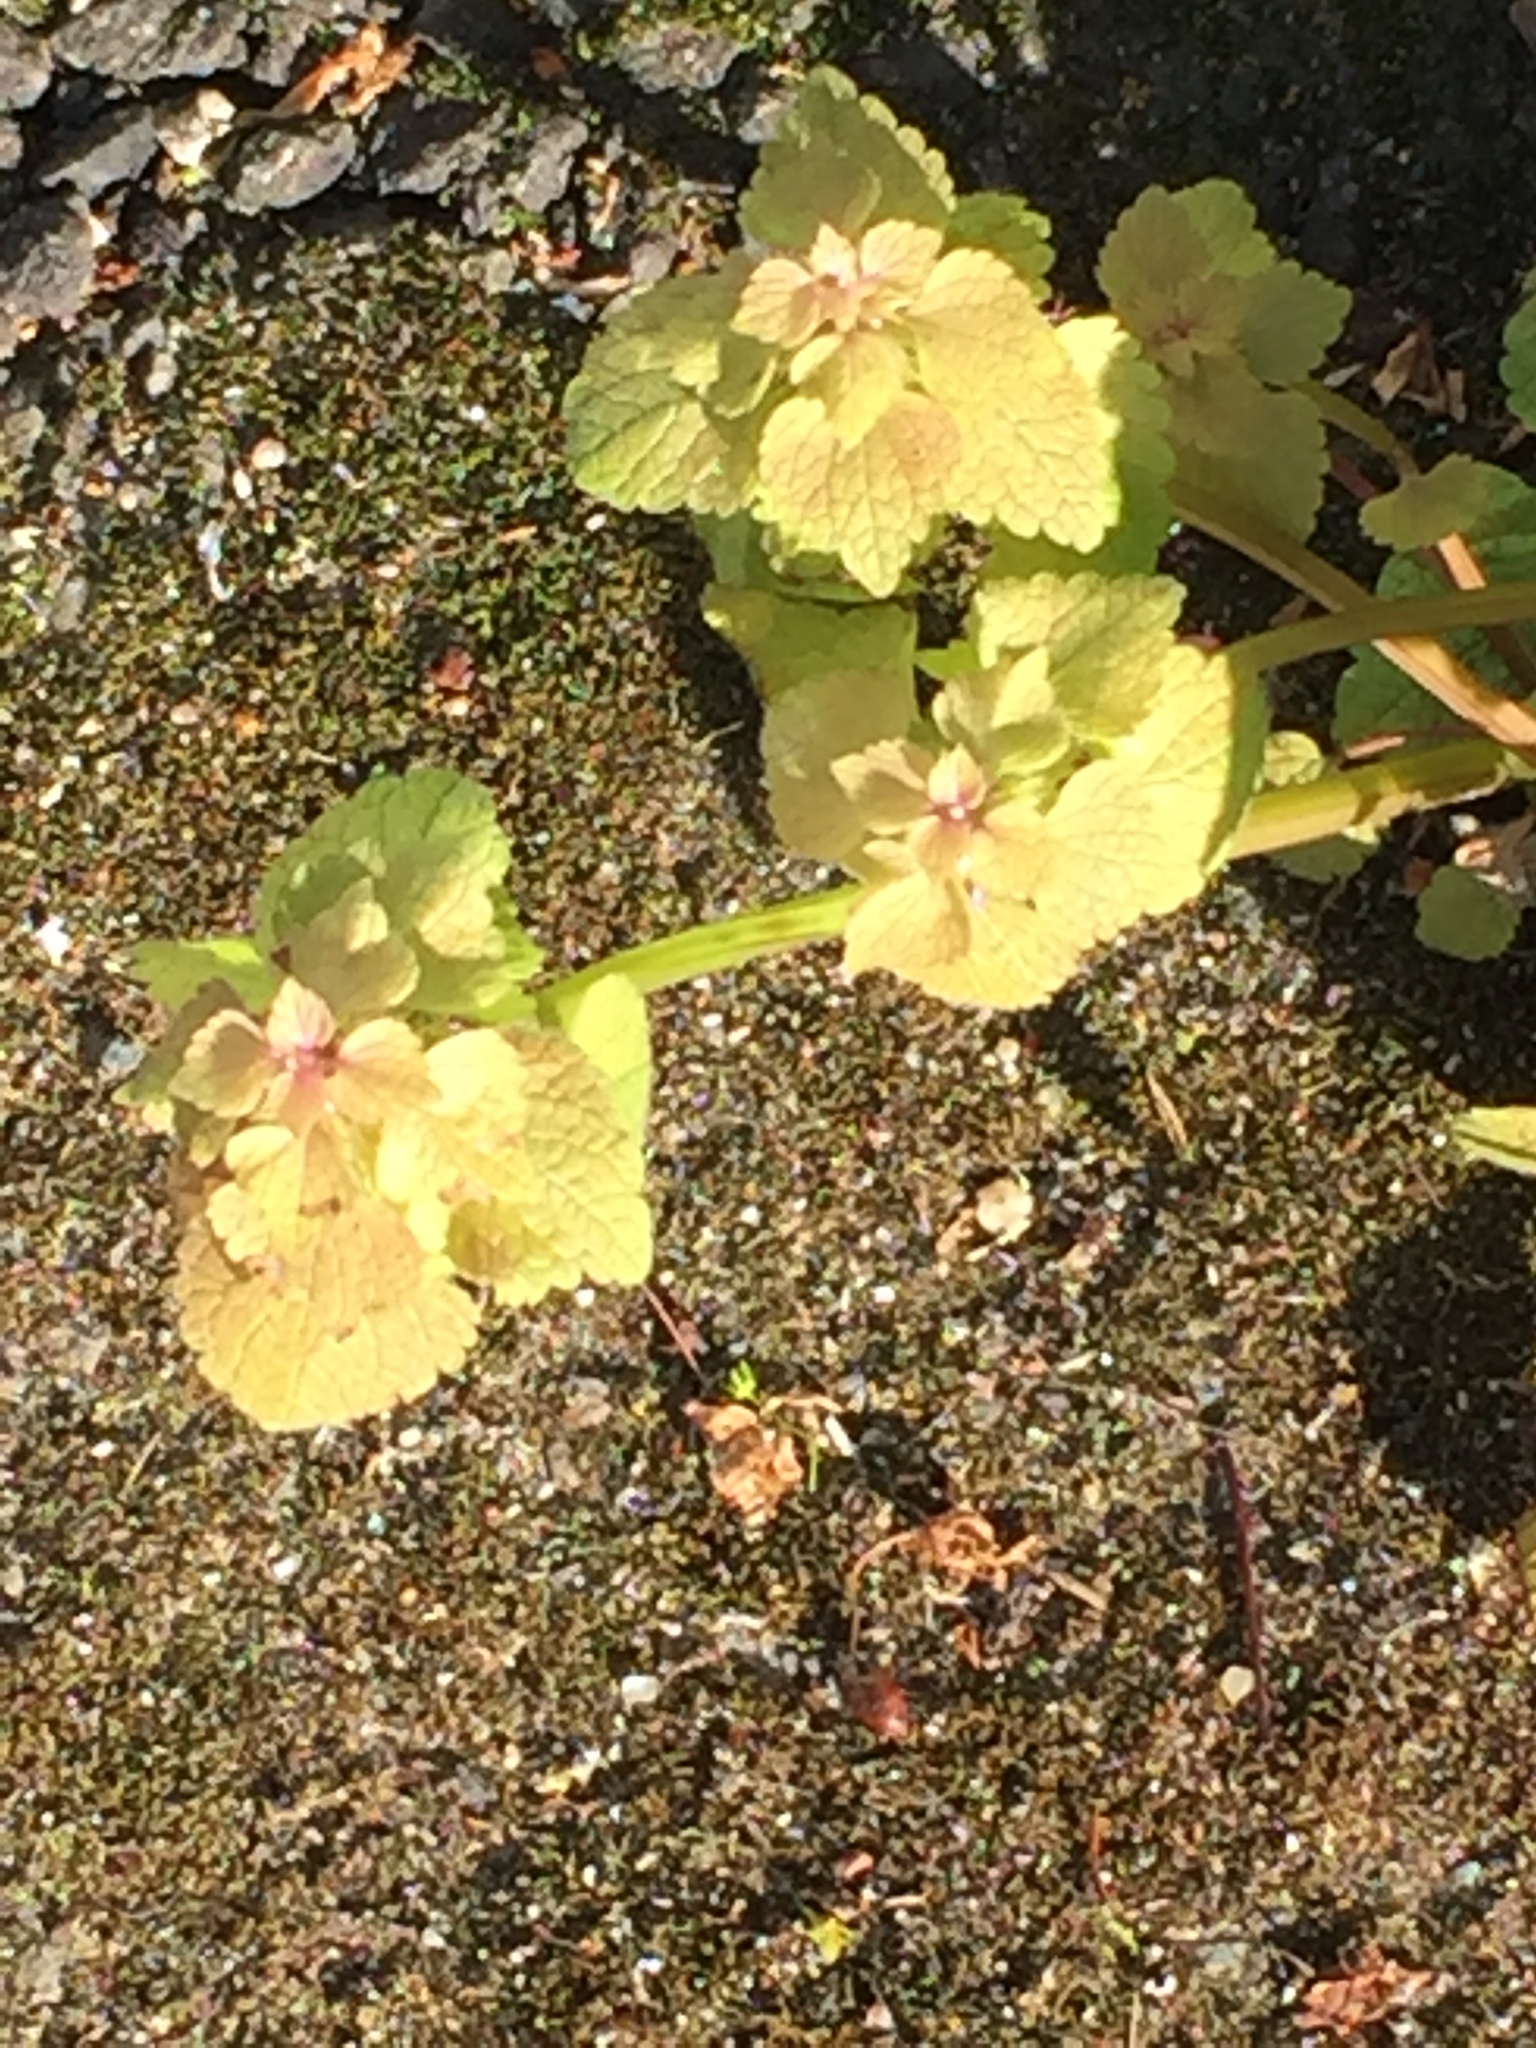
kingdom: Plantae
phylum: Tracheophyta
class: Magnoliopsida
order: Lamiales
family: Lamiaceae
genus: Lamium
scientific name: Lamium purpureum
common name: Red dead-nettle
